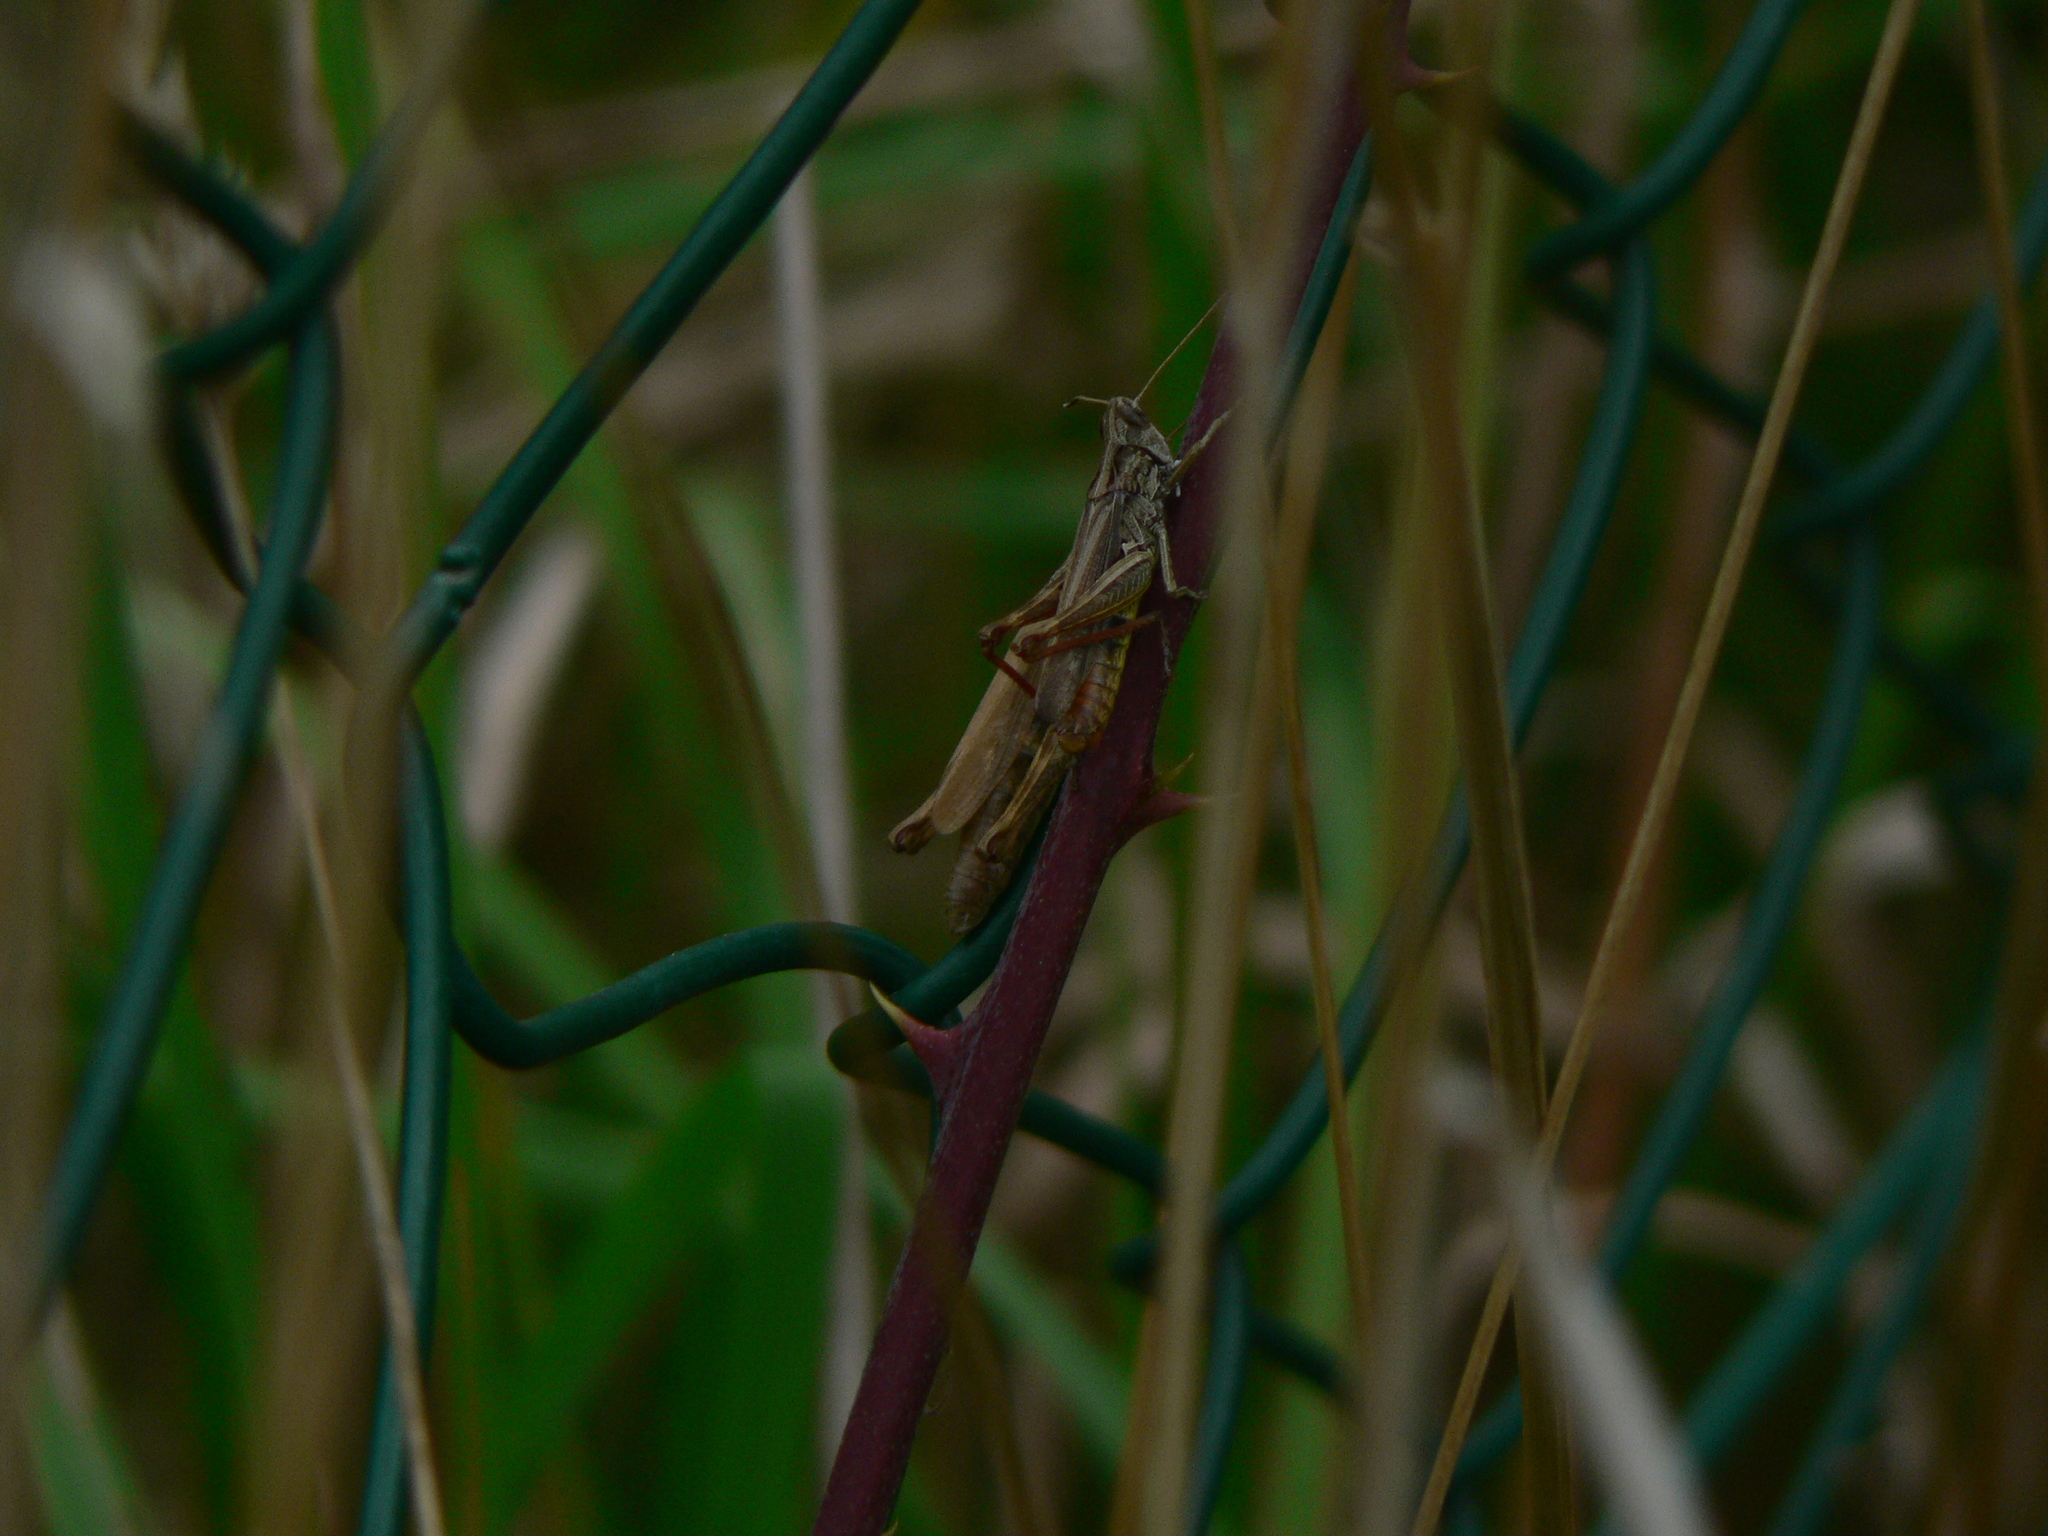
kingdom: Animalia
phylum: Arthropoda
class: Insecta
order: Orthoptera
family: Acrididae
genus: Gomphocerippus
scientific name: Gomphocerippus rufus
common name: Rufous grasshopper
